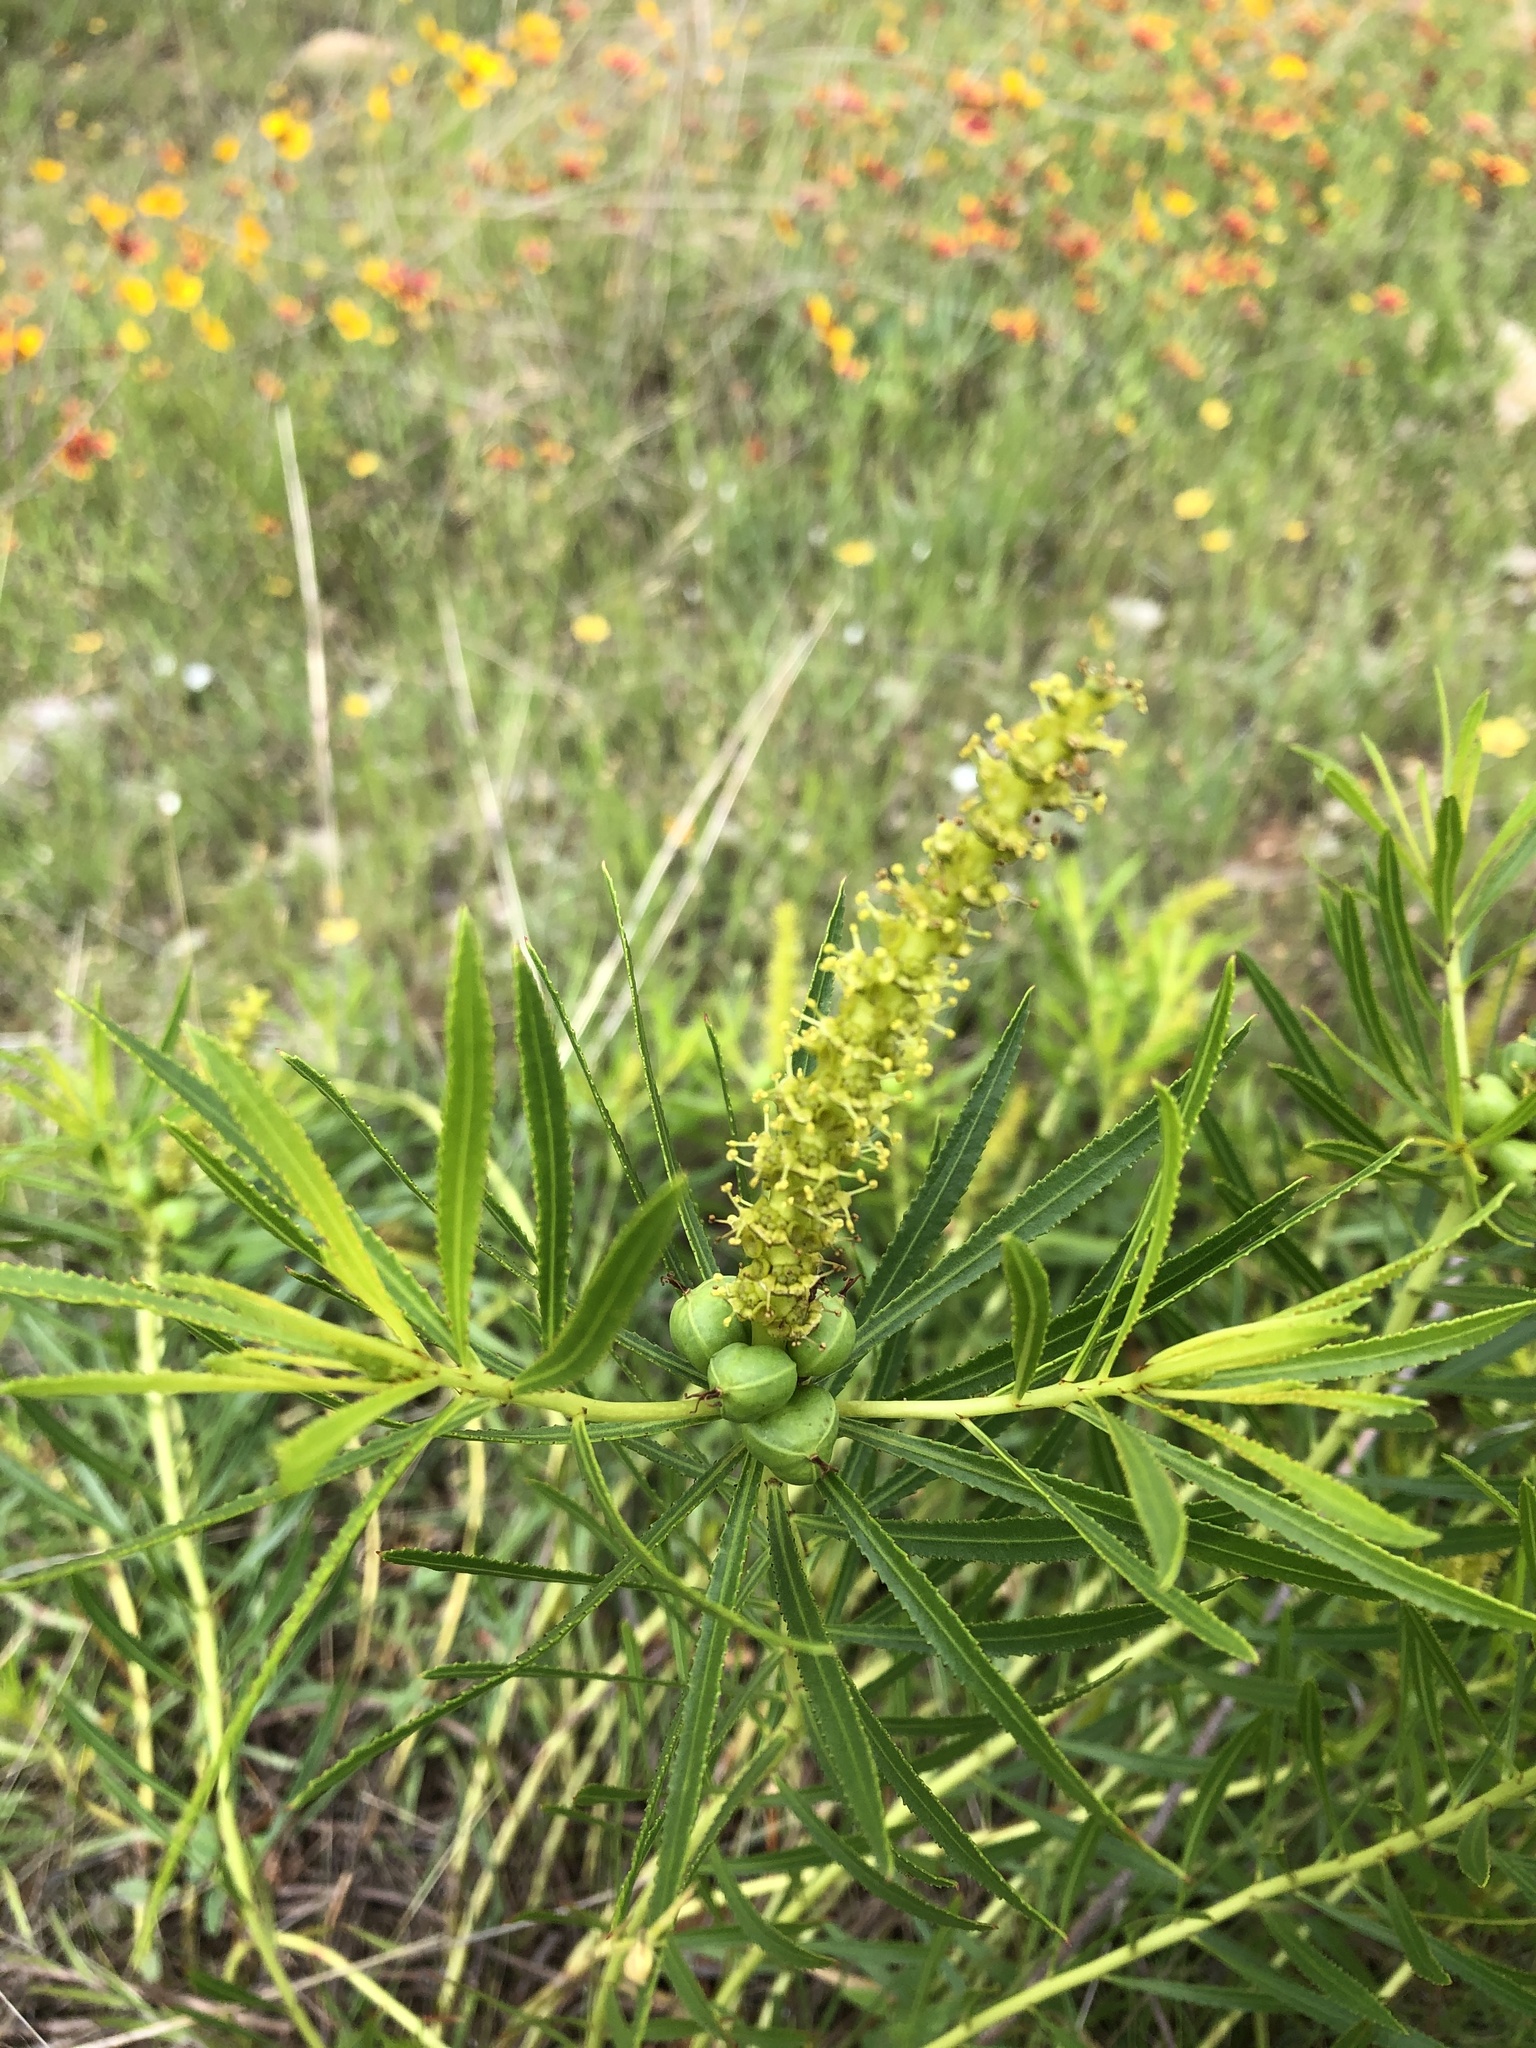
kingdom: Plantae
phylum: Tracheophyta
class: Magnoliopsida
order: Malpighiales
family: Euphorbiaceae
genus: Stillingia
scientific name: Stillingia texana
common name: Texas stillingia
